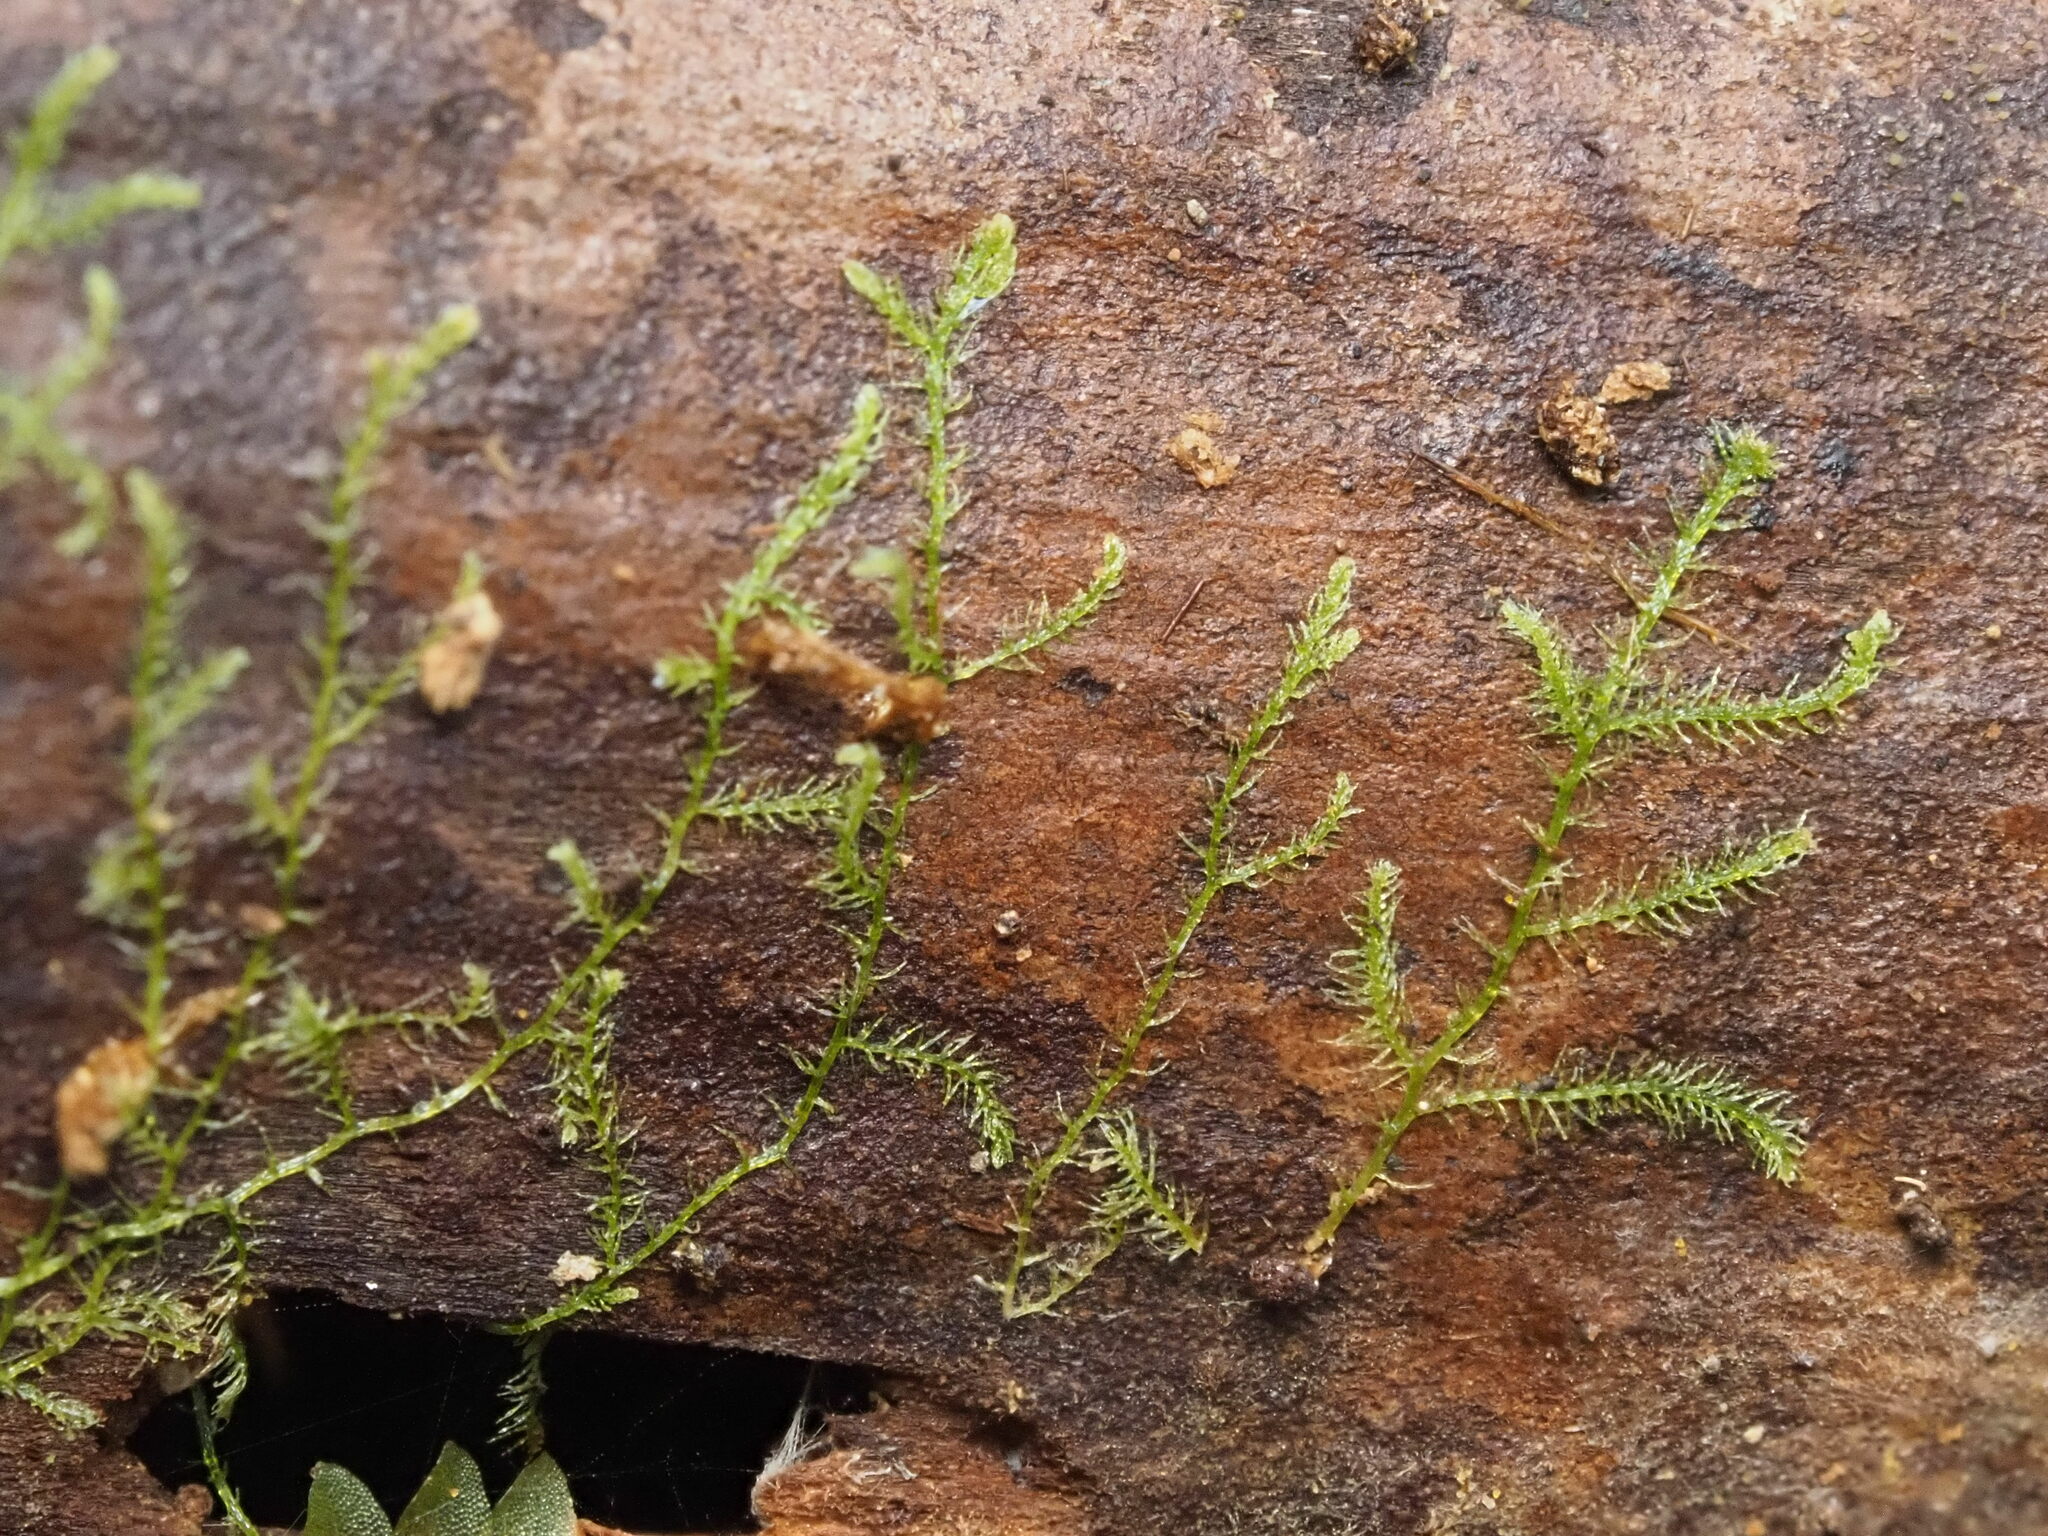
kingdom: Plantae
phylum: Marchantiophyta
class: Jungermanniopsida
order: Jungermanniales
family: Lepidoziaceae
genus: Telaranea
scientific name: Telaranea nematodes
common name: Irish threadwort
